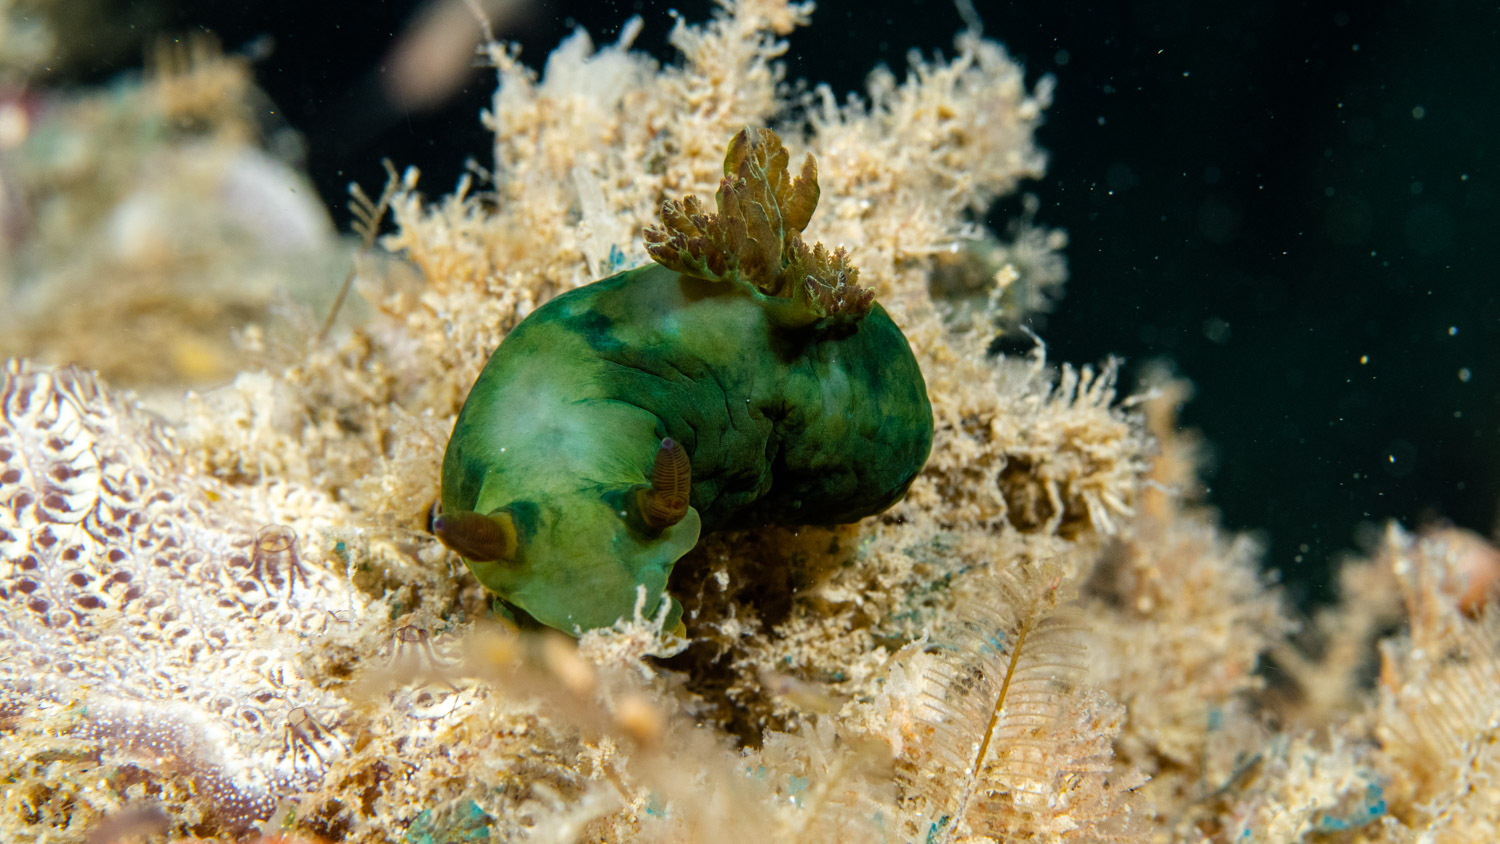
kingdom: Animalia
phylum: Mollusca
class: Gastropoda
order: Nudibranchia
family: Polyceridae
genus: Tambja
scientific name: Tambja dracomus
